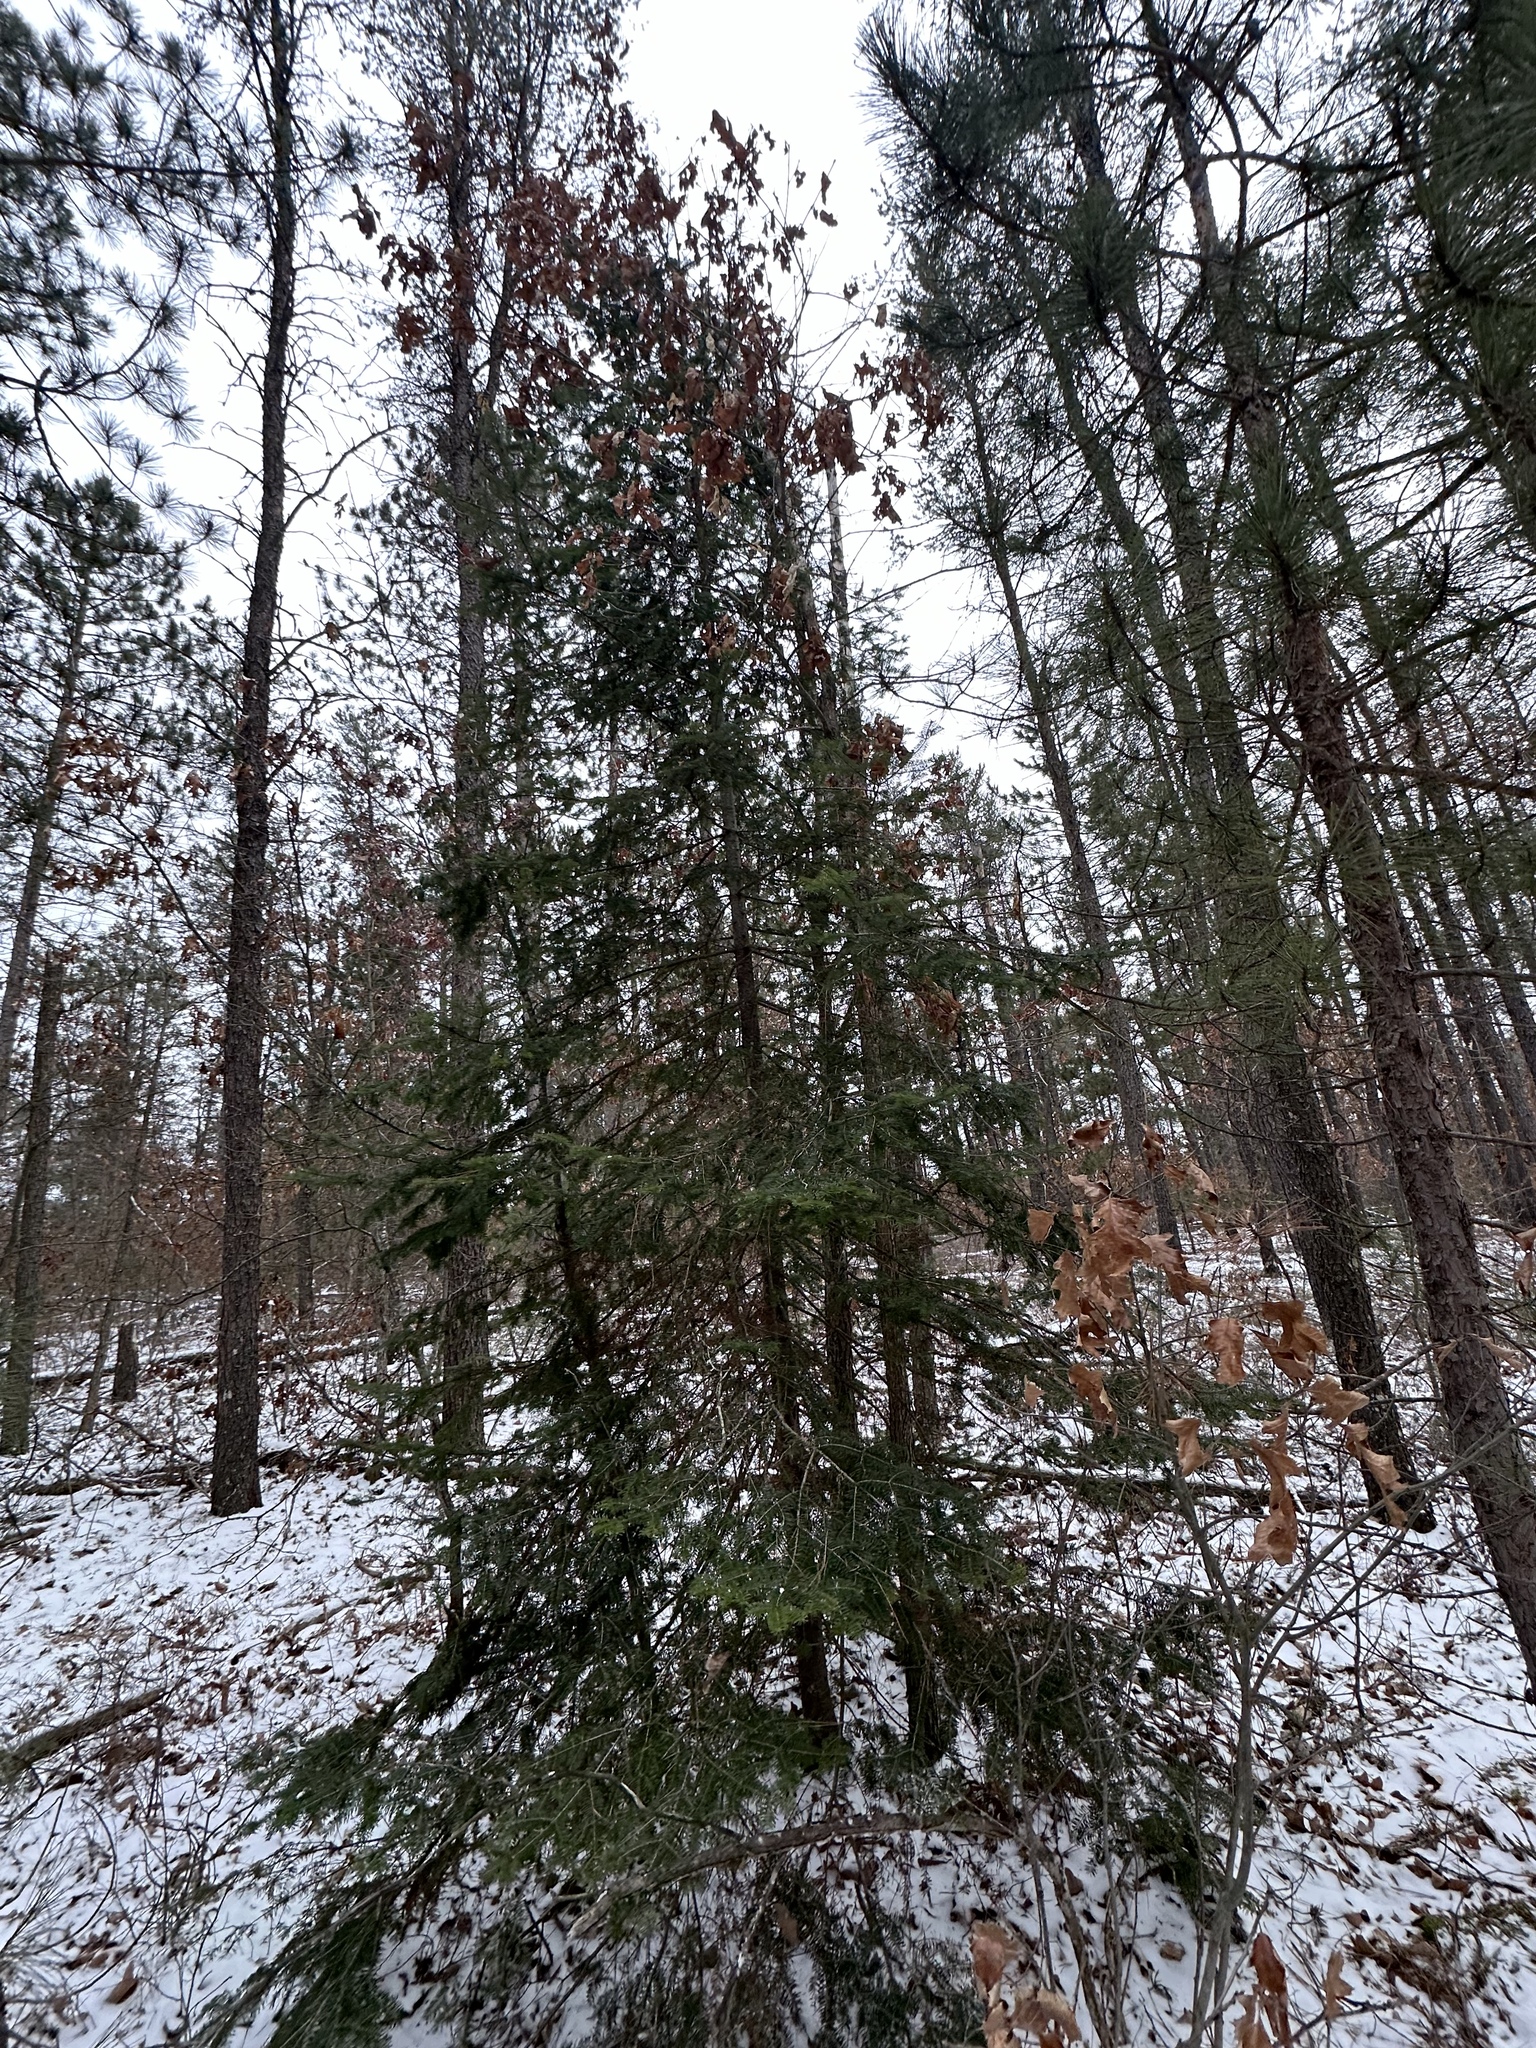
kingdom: Plantae
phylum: Tracheophyta
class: Pinopsida
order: Pinales
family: Pinaceae
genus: Abies
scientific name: Abies balsamea
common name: Balsam fir
